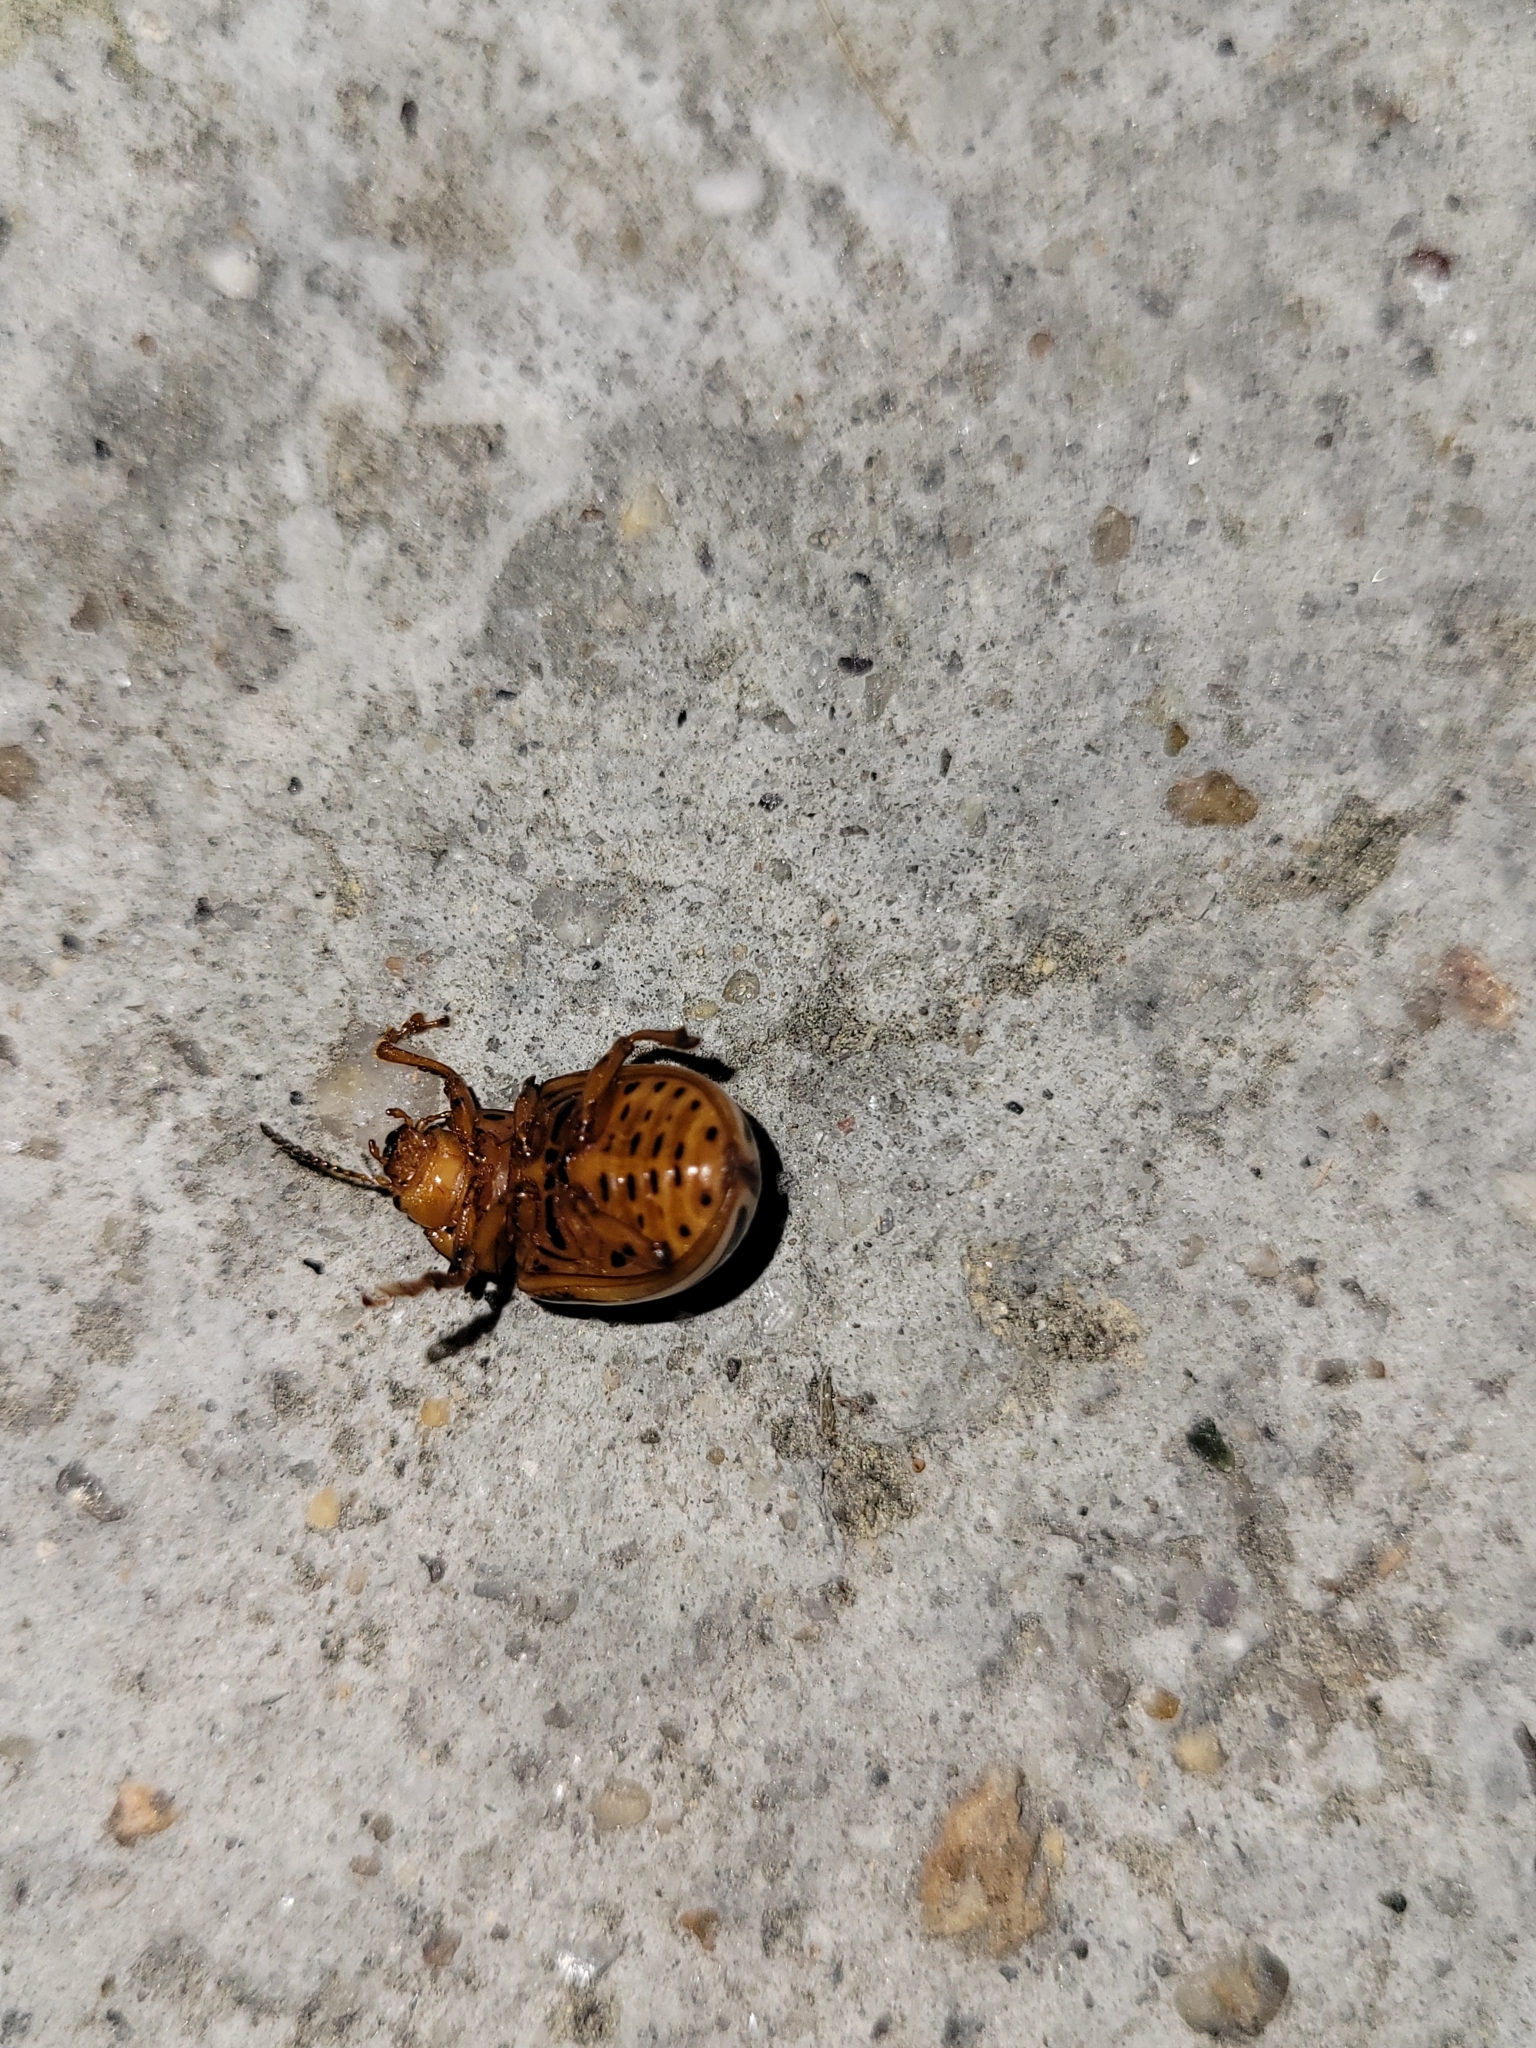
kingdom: Animalia
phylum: Arthropoda
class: Insecta
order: Coleoptera
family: Chrysomelidae
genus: Leptinotarsa
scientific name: Leptinotarsa juncta
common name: False potato beetle
